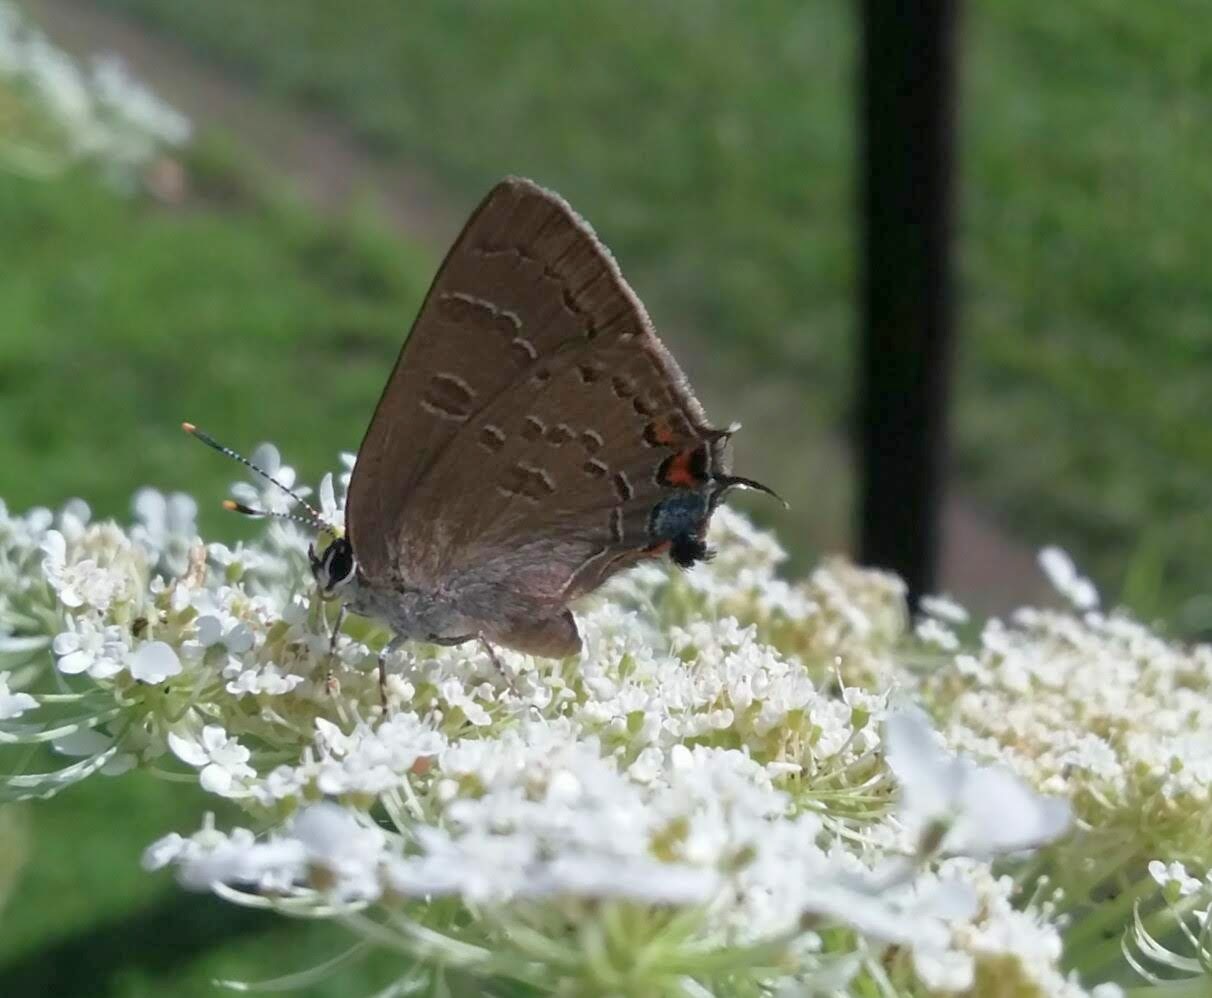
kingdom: Animalia
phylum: Arthropoda
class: Insecta
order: Lepidoptera
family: Lycaenidae
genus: Satyrium
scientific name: Satyrium calanus
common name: Banded hairstreak
